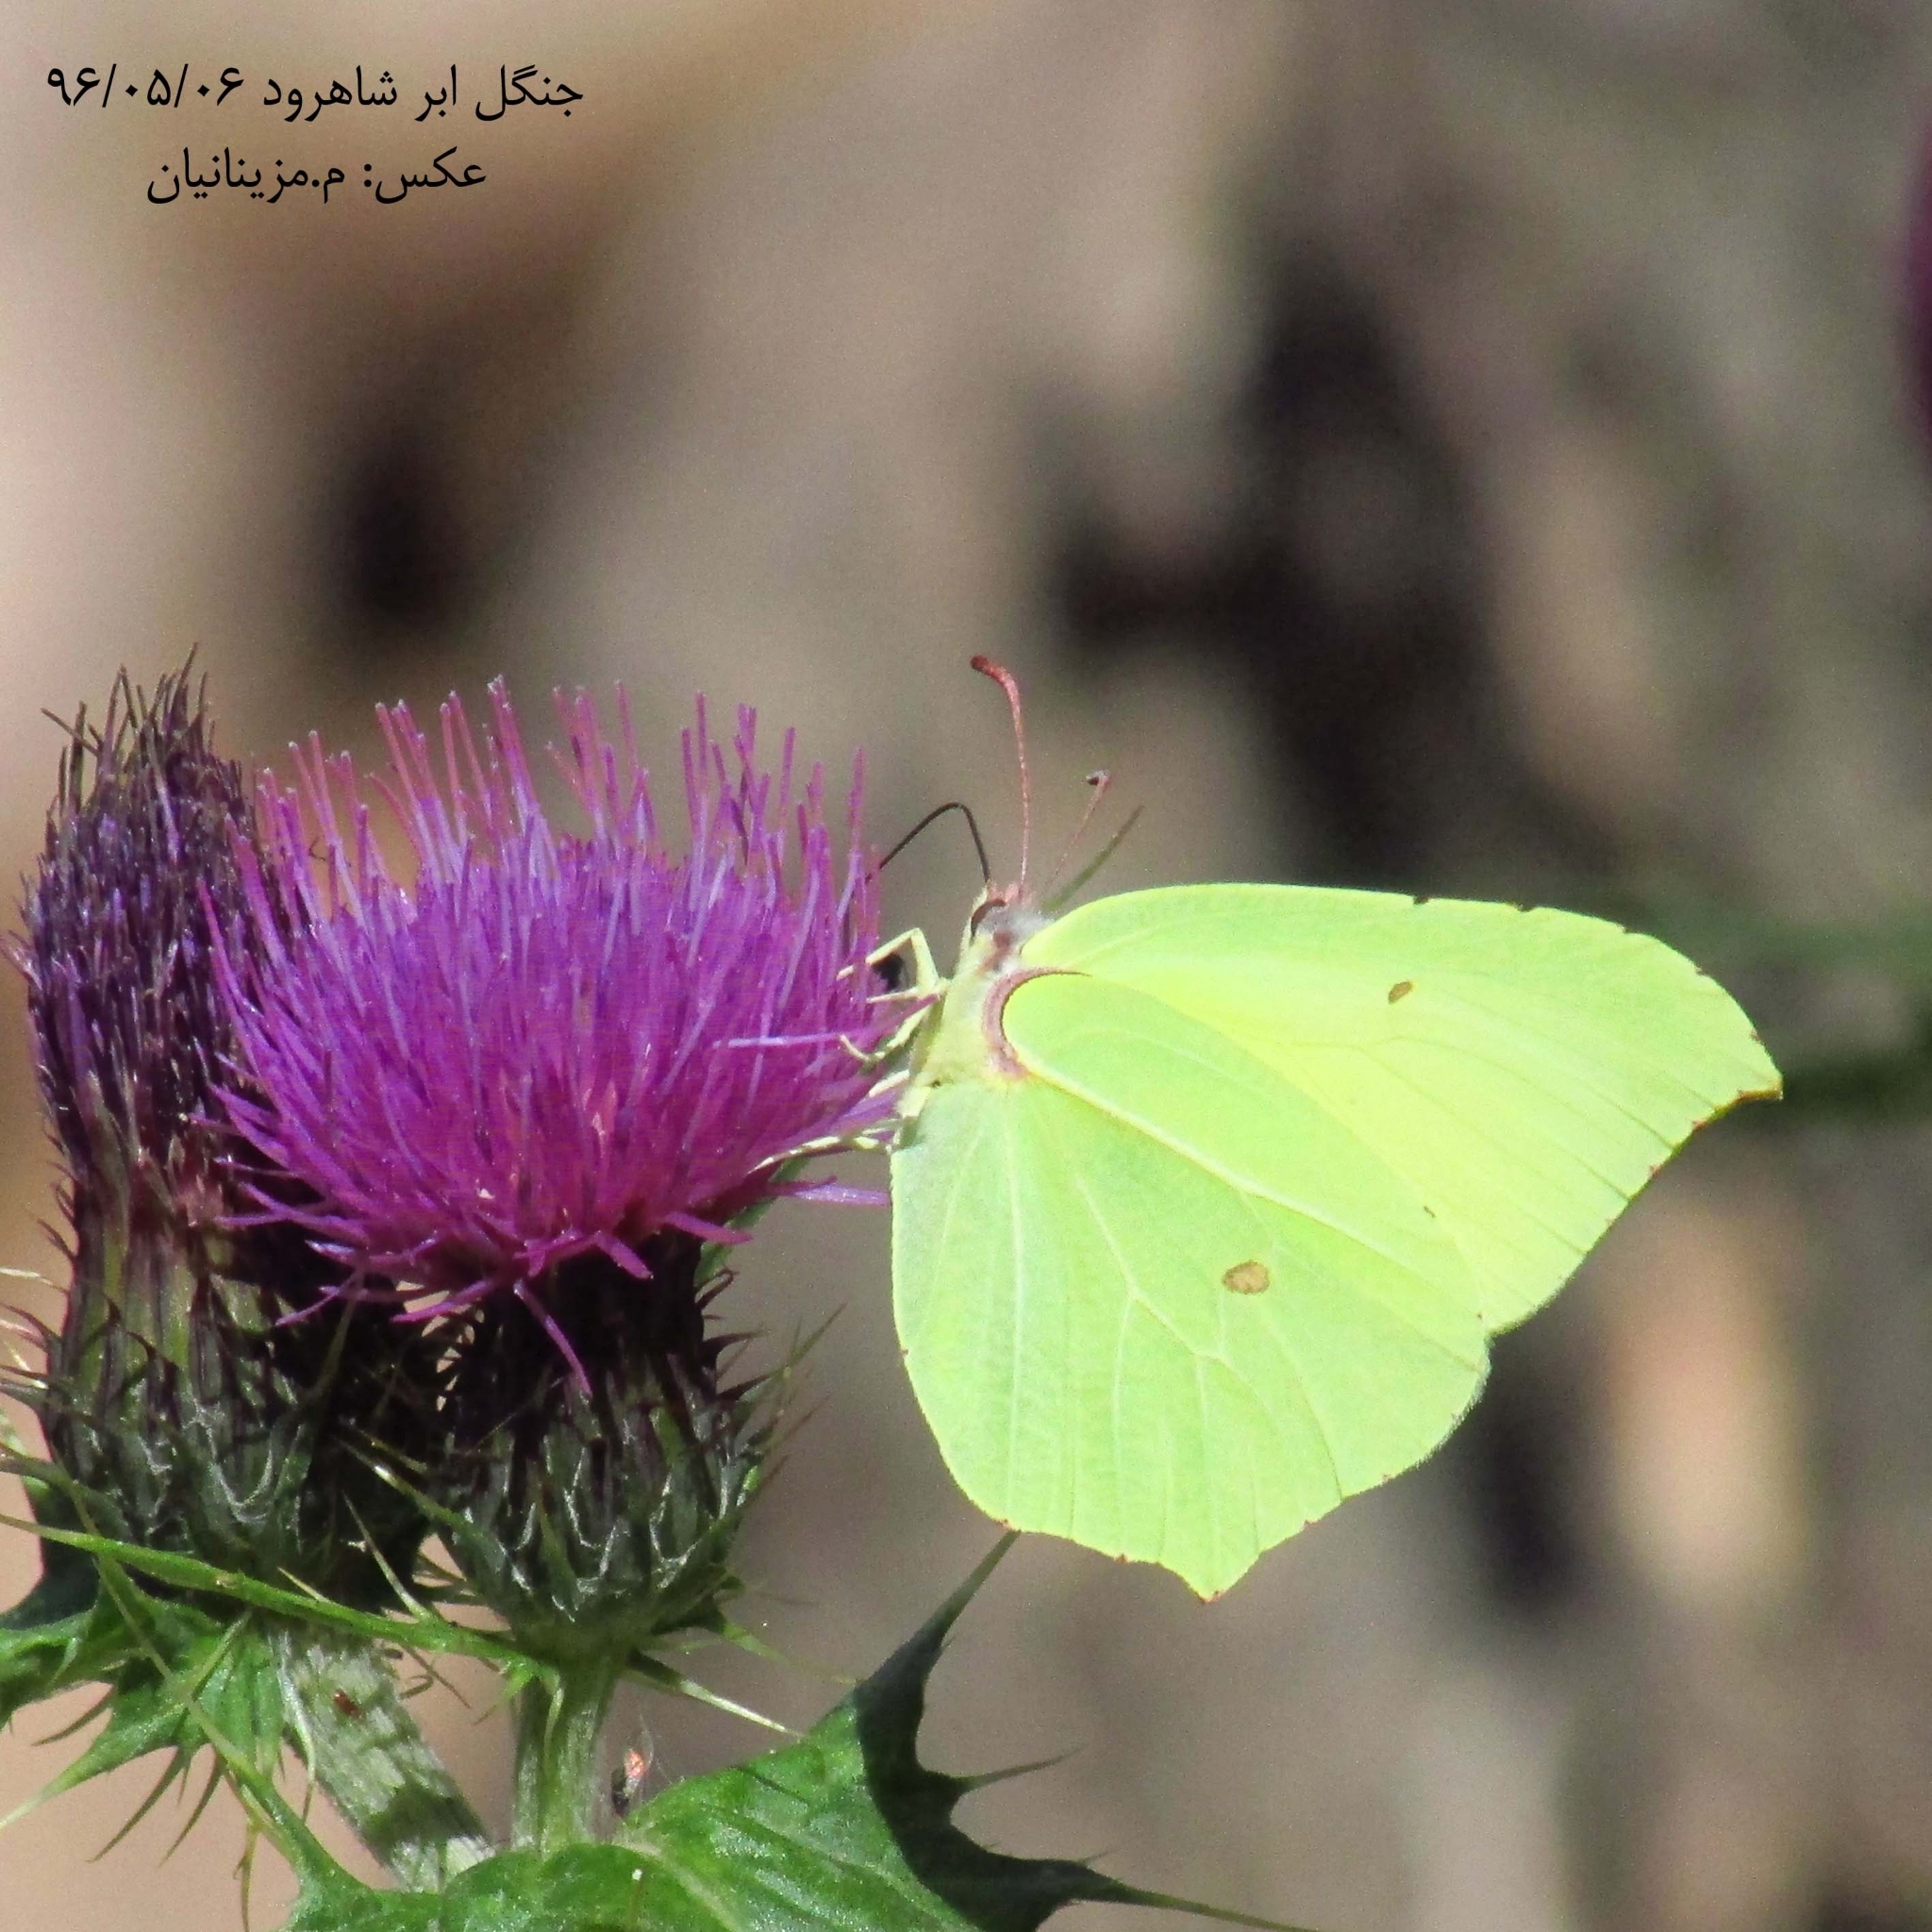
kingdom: Animalia
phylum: Arthropoda
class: Insecta
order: Lepidoptera
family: Pieridae
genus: Gonepteryx
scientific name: Gonepteryx rhamni
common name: Brimstone
